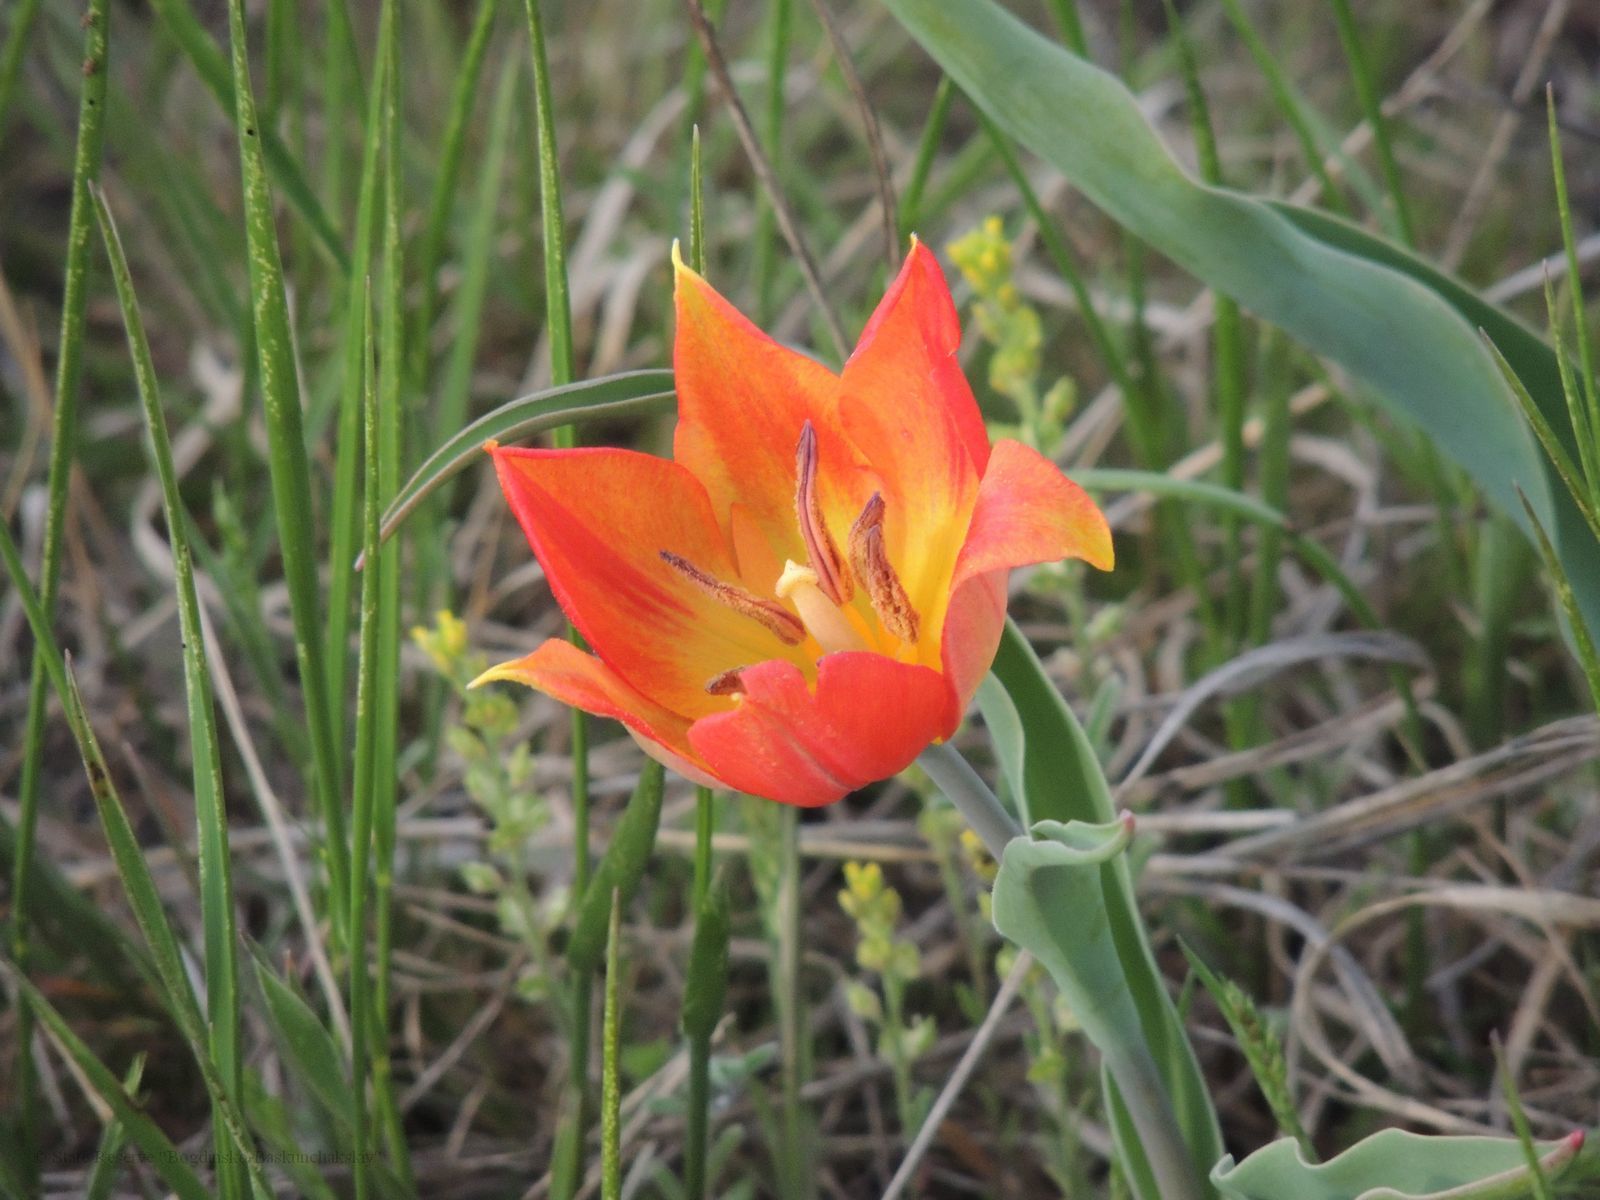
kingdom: Plantae
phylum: Tracheophyta
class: Liliopsida
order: Liliales
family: Liliaceae
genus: Tulipa
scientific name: Tulipa suaveolens
